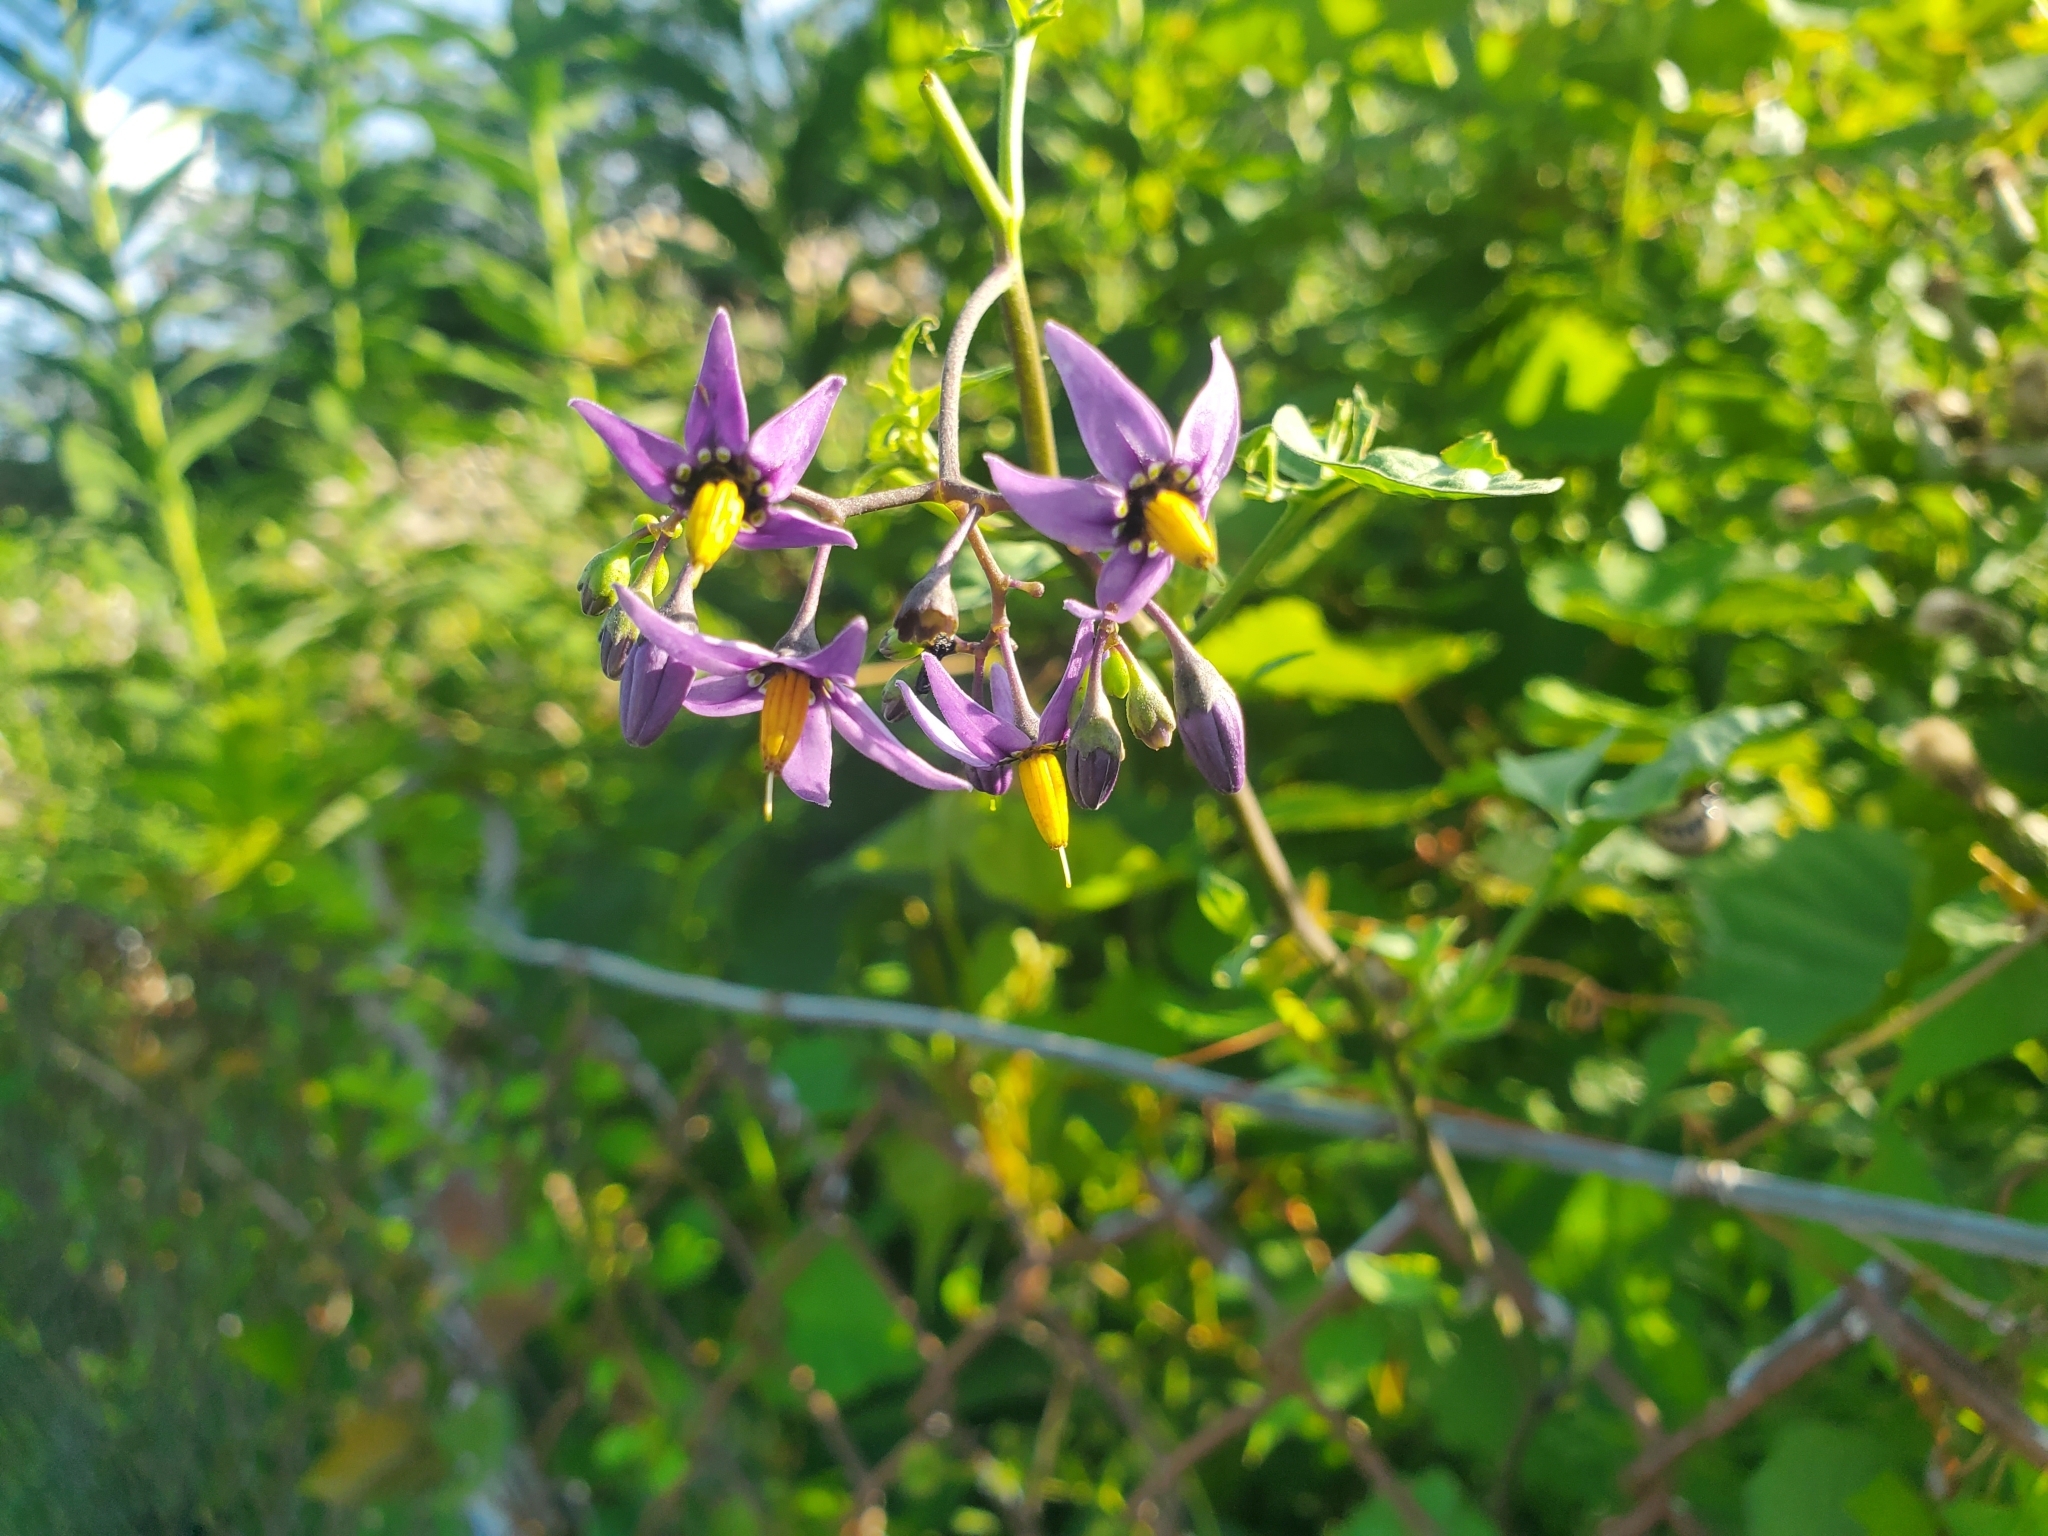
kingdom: Plantae
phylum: Tracheophyta
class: Magnoliopsida
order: Solanales
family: Solanaceae
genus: Solanum
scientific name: Solanum dulcamara
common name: Climbing nightshade
